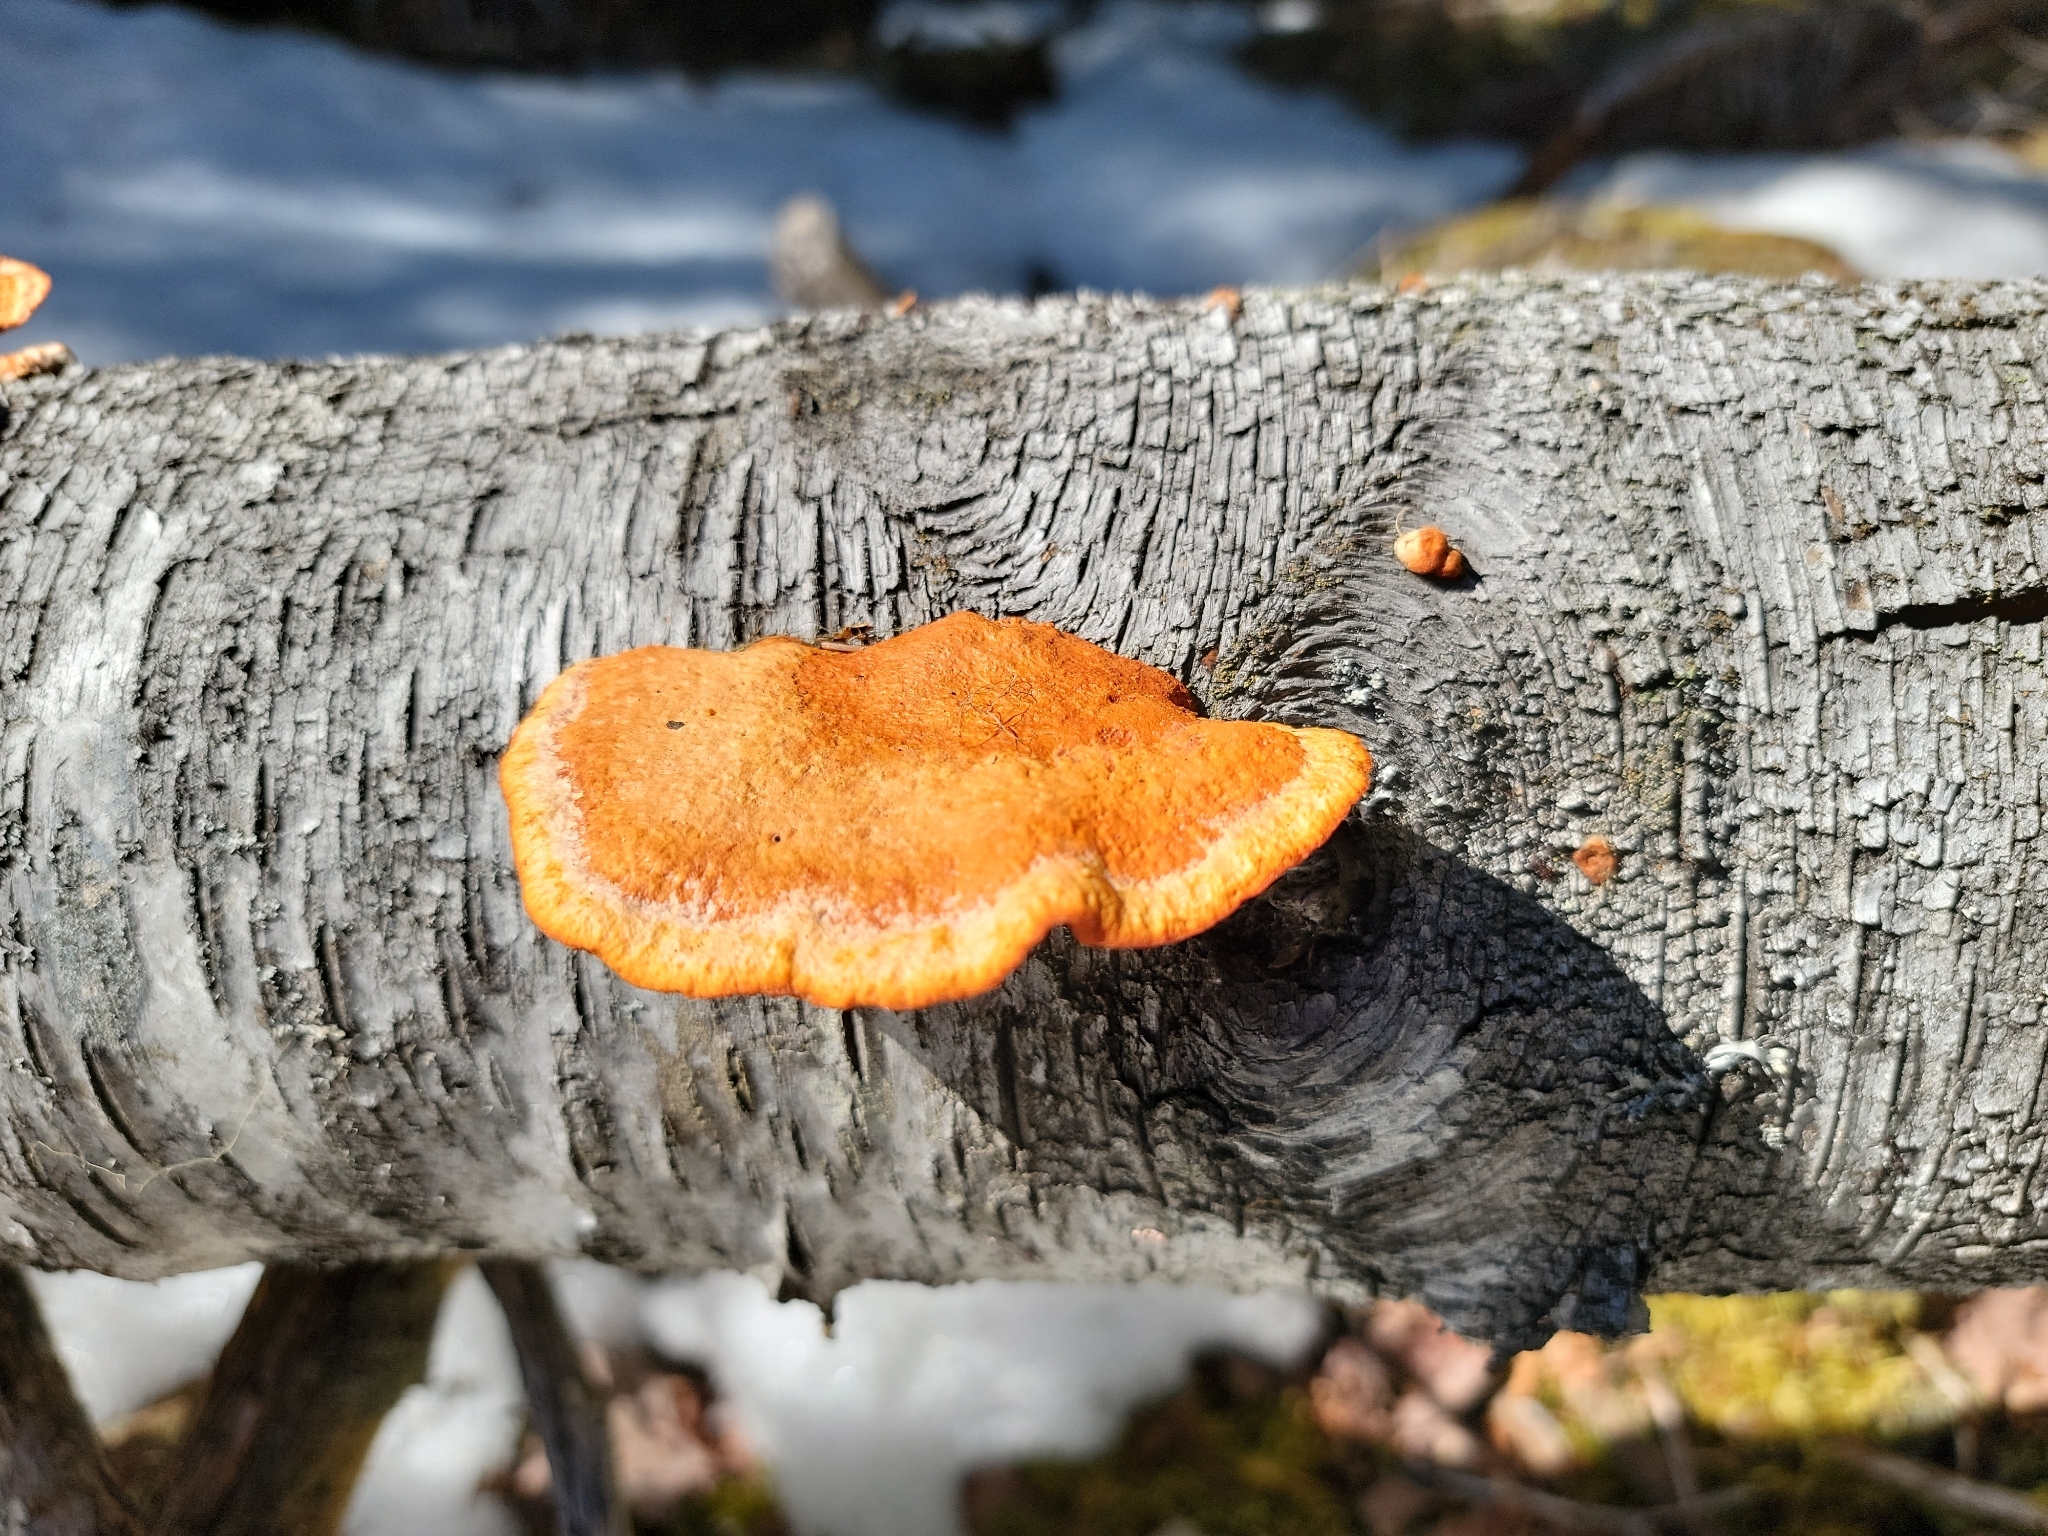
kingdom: Fungi
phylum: Basidiomycota
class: Agaricomycetes
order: Polyporales
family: Polyporaceae
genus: Trametes
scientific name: Trametes cinnabarina
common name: Northern cinnabar polypore
